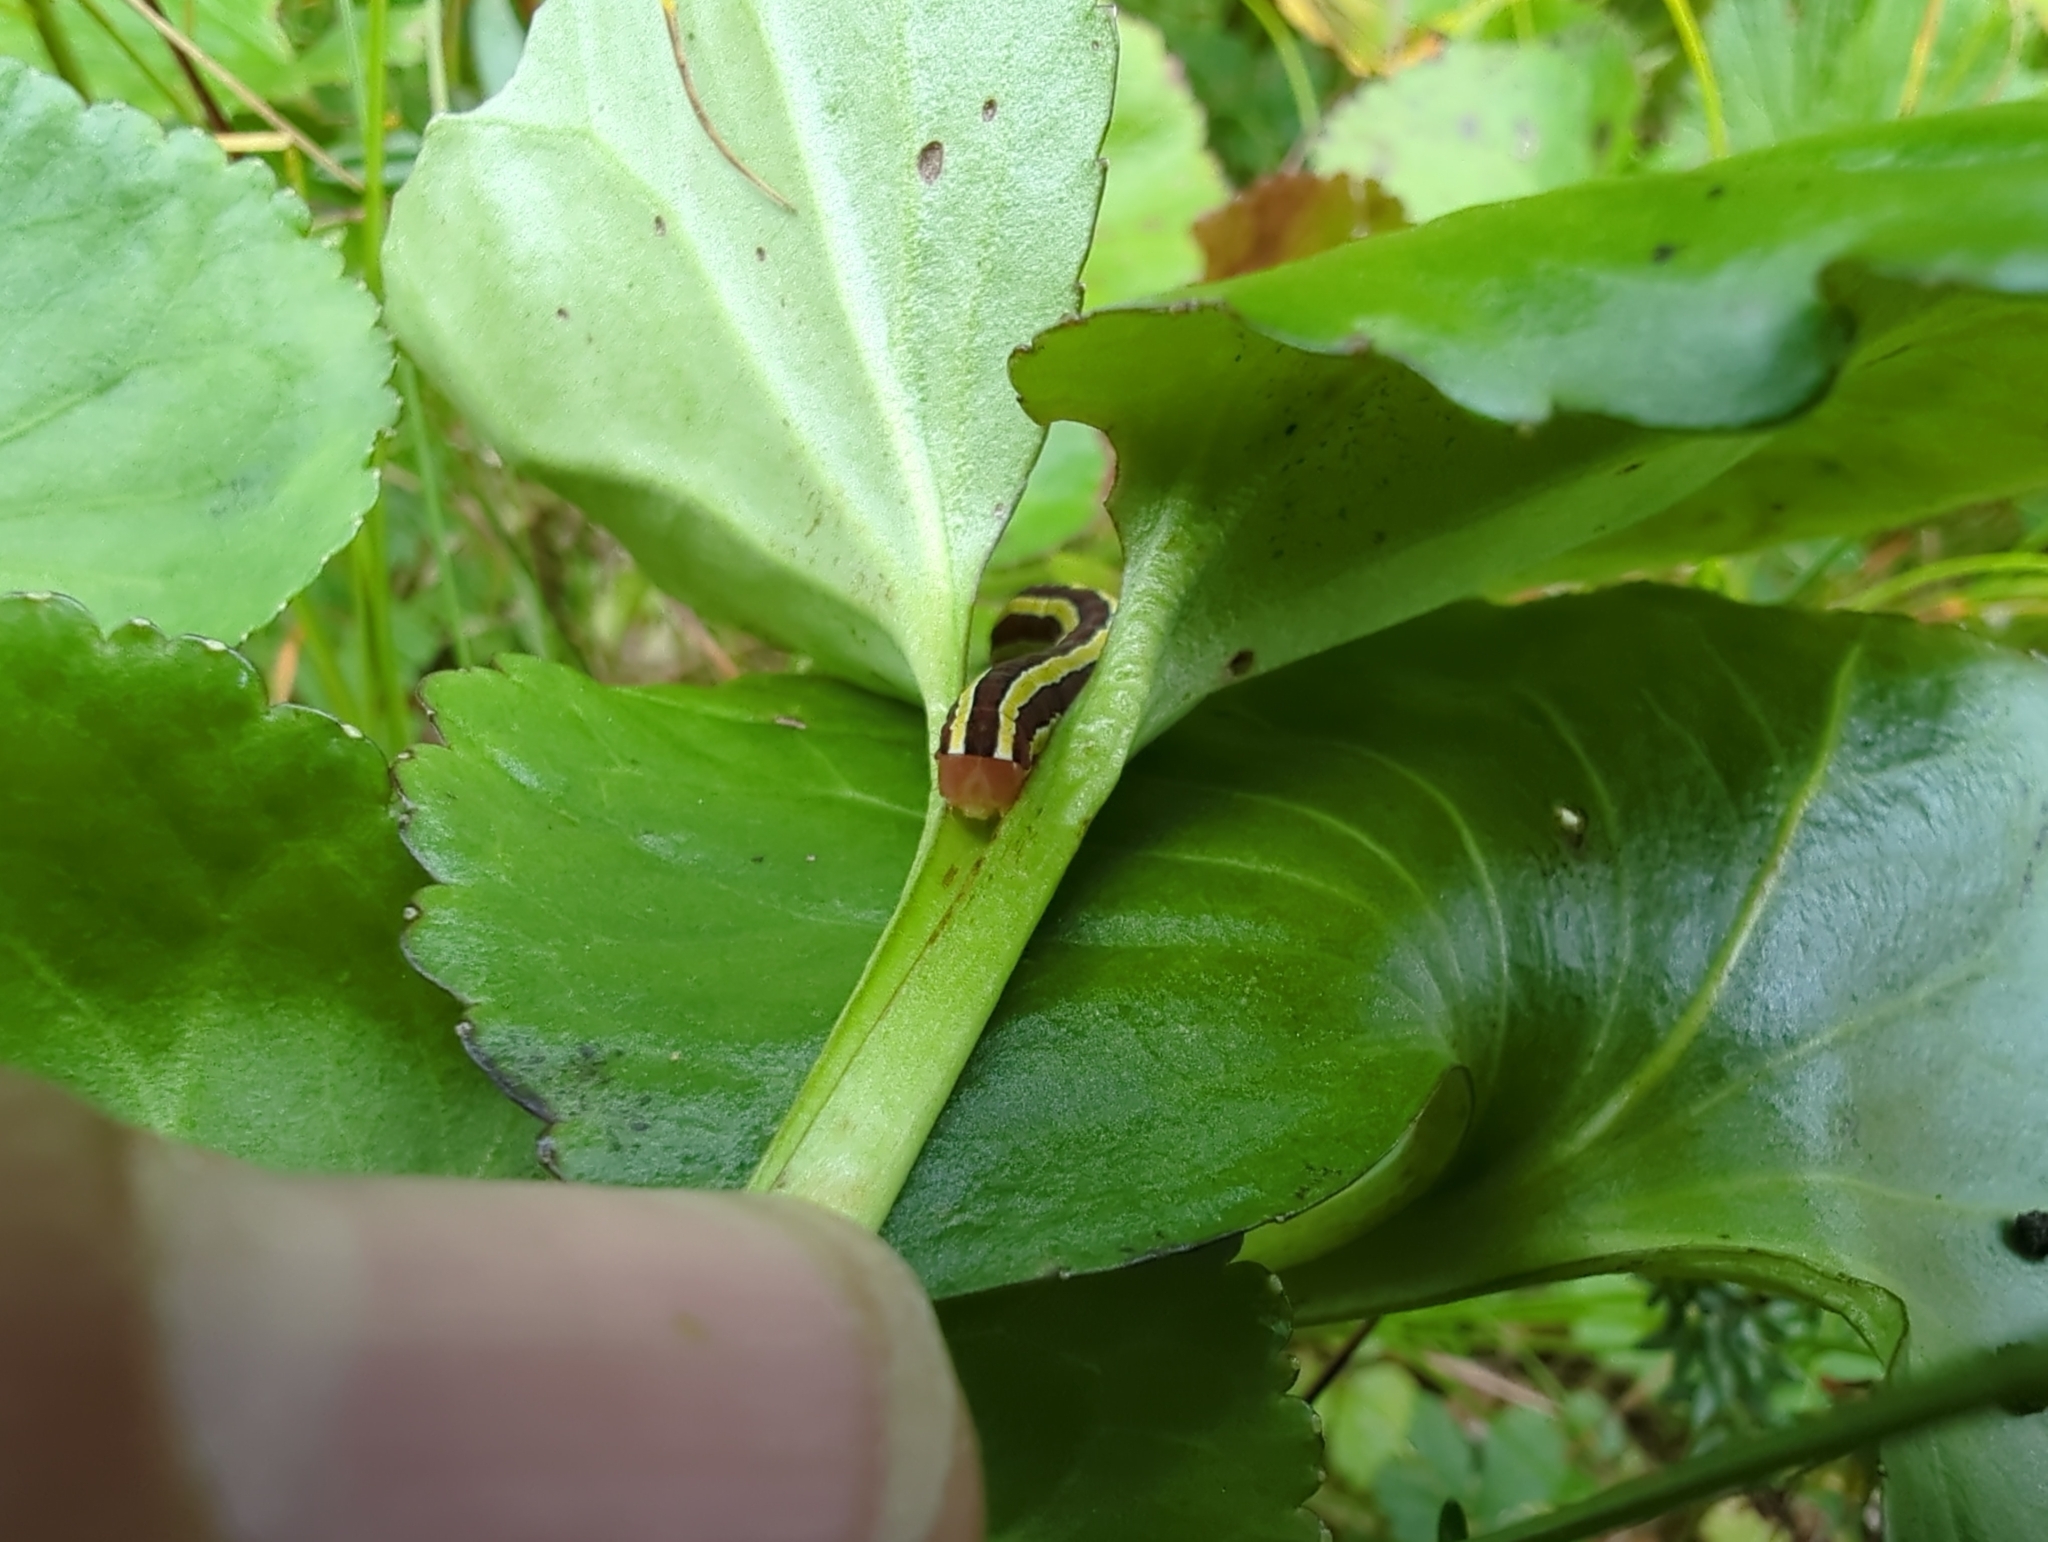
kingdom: Animalia
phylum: Arthropoda
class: Insecta
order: Lepidoptera
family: Noctuidae
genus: Melanchra
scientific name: Melanchra pulverulenta
